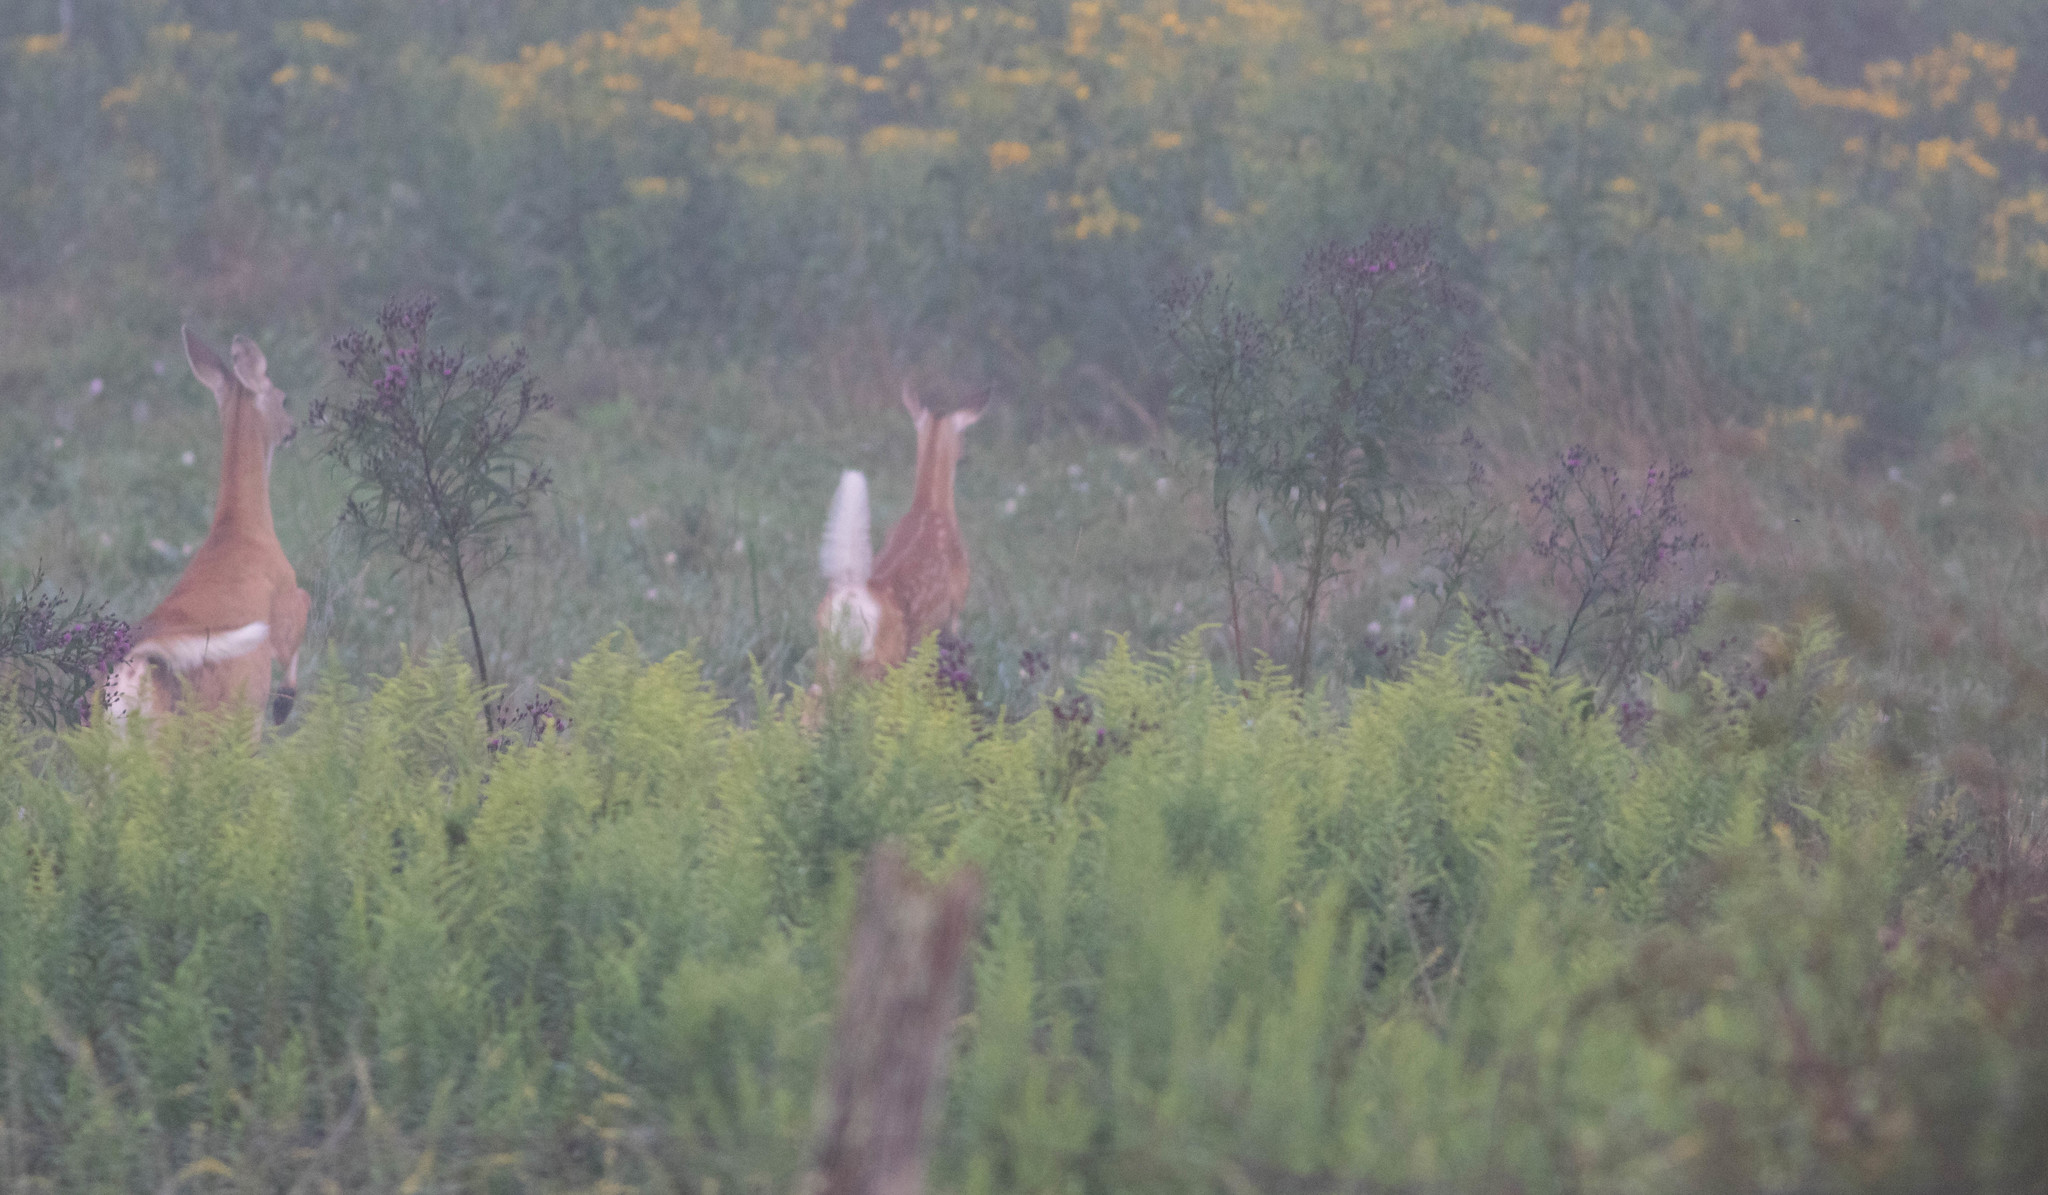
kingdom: Animalia
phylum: Chordata
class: Mammalia
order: Artiodactyla
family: Cervidae
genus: Odocoileus
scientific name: Odocoileus virginianus
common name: White-tailed deer
